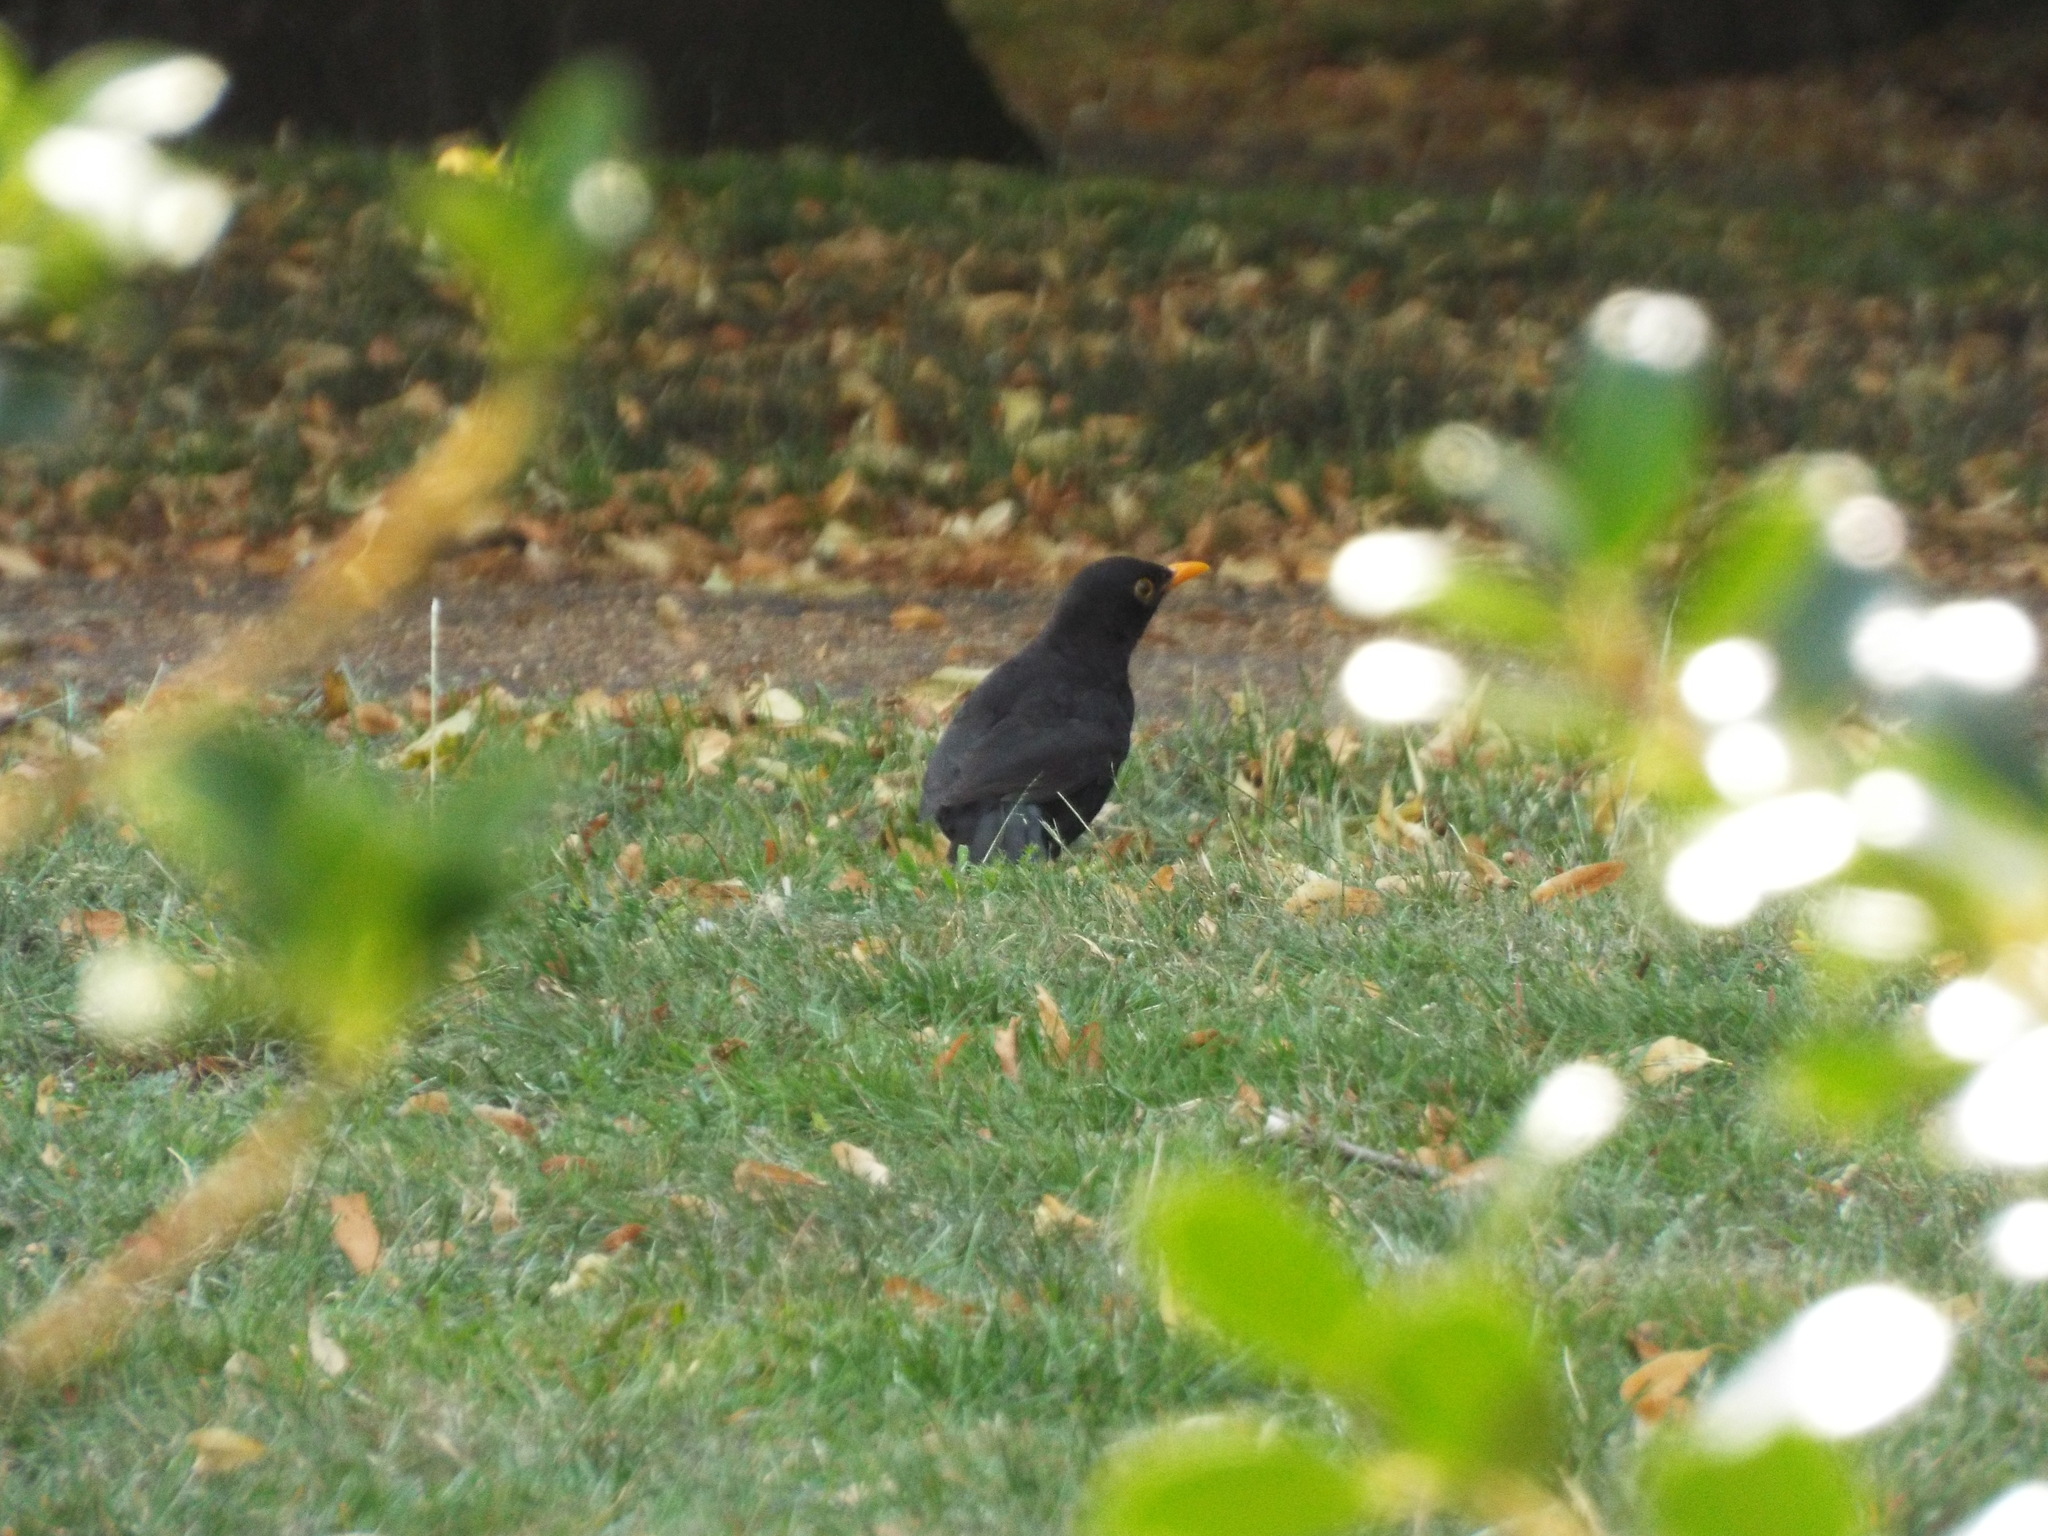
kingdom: Animalia
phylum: Chordata
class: Aves
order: Passeriformes
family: Turdidae
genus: Turdus
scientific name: Turdus merula
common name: Common blackbird
